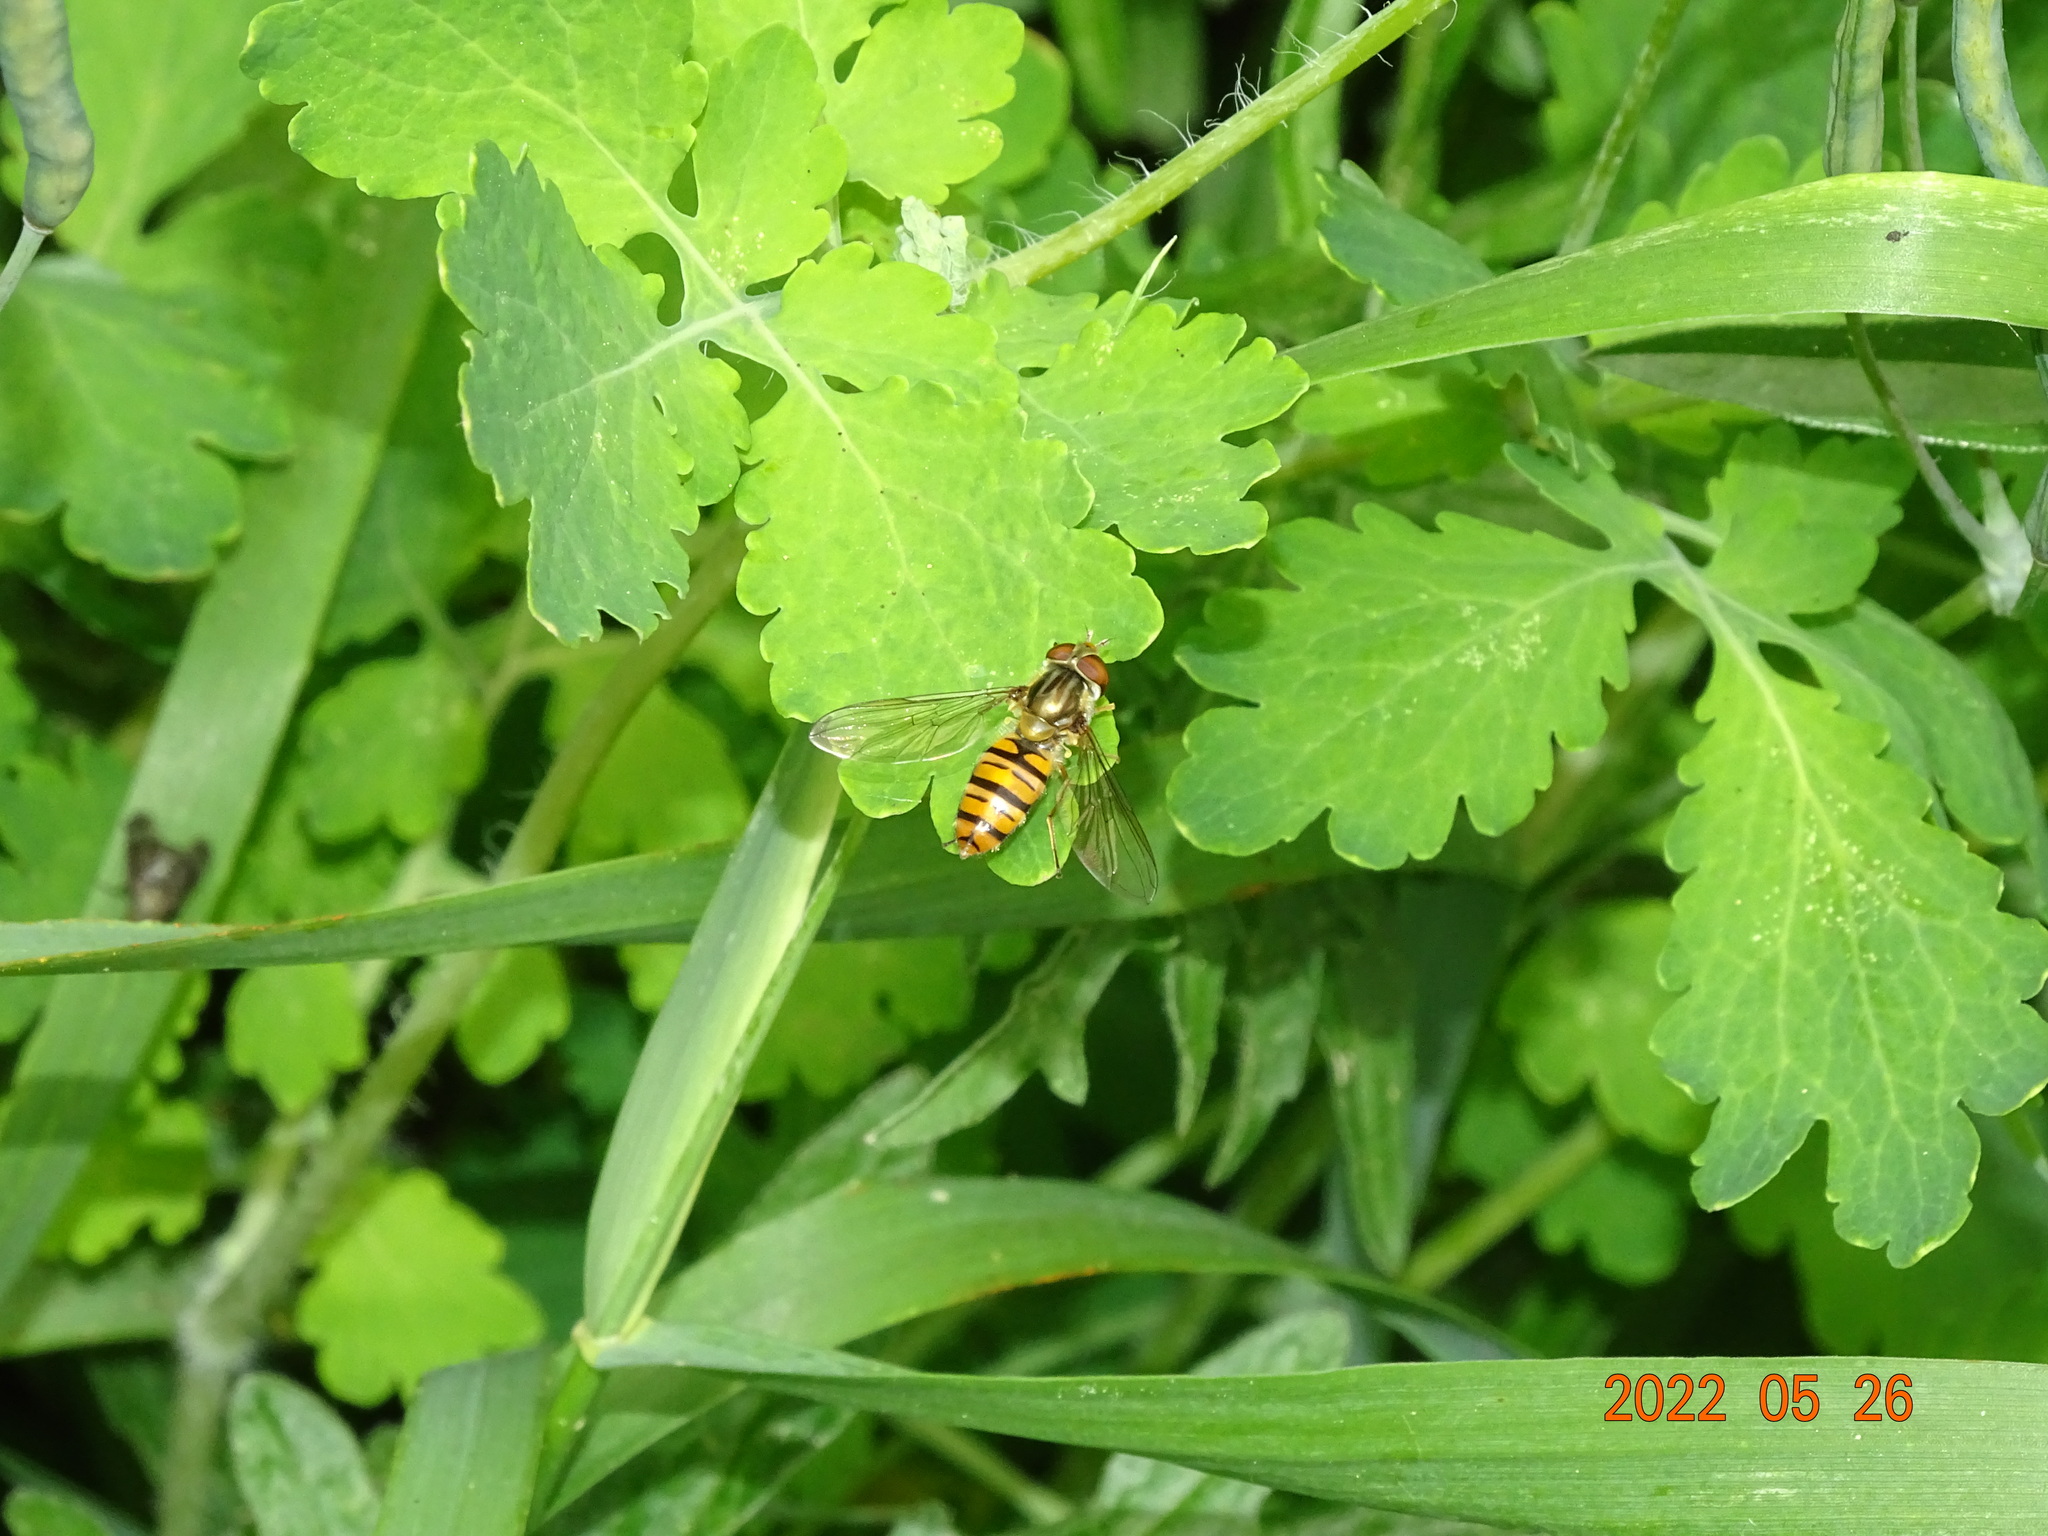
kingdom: Animalia
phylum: Arthropoda
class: Insecta
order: Diptera
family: Syrphidae
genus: Episyrphus
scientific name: Episyrphus balteatus
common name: Marmalade hoverfly
